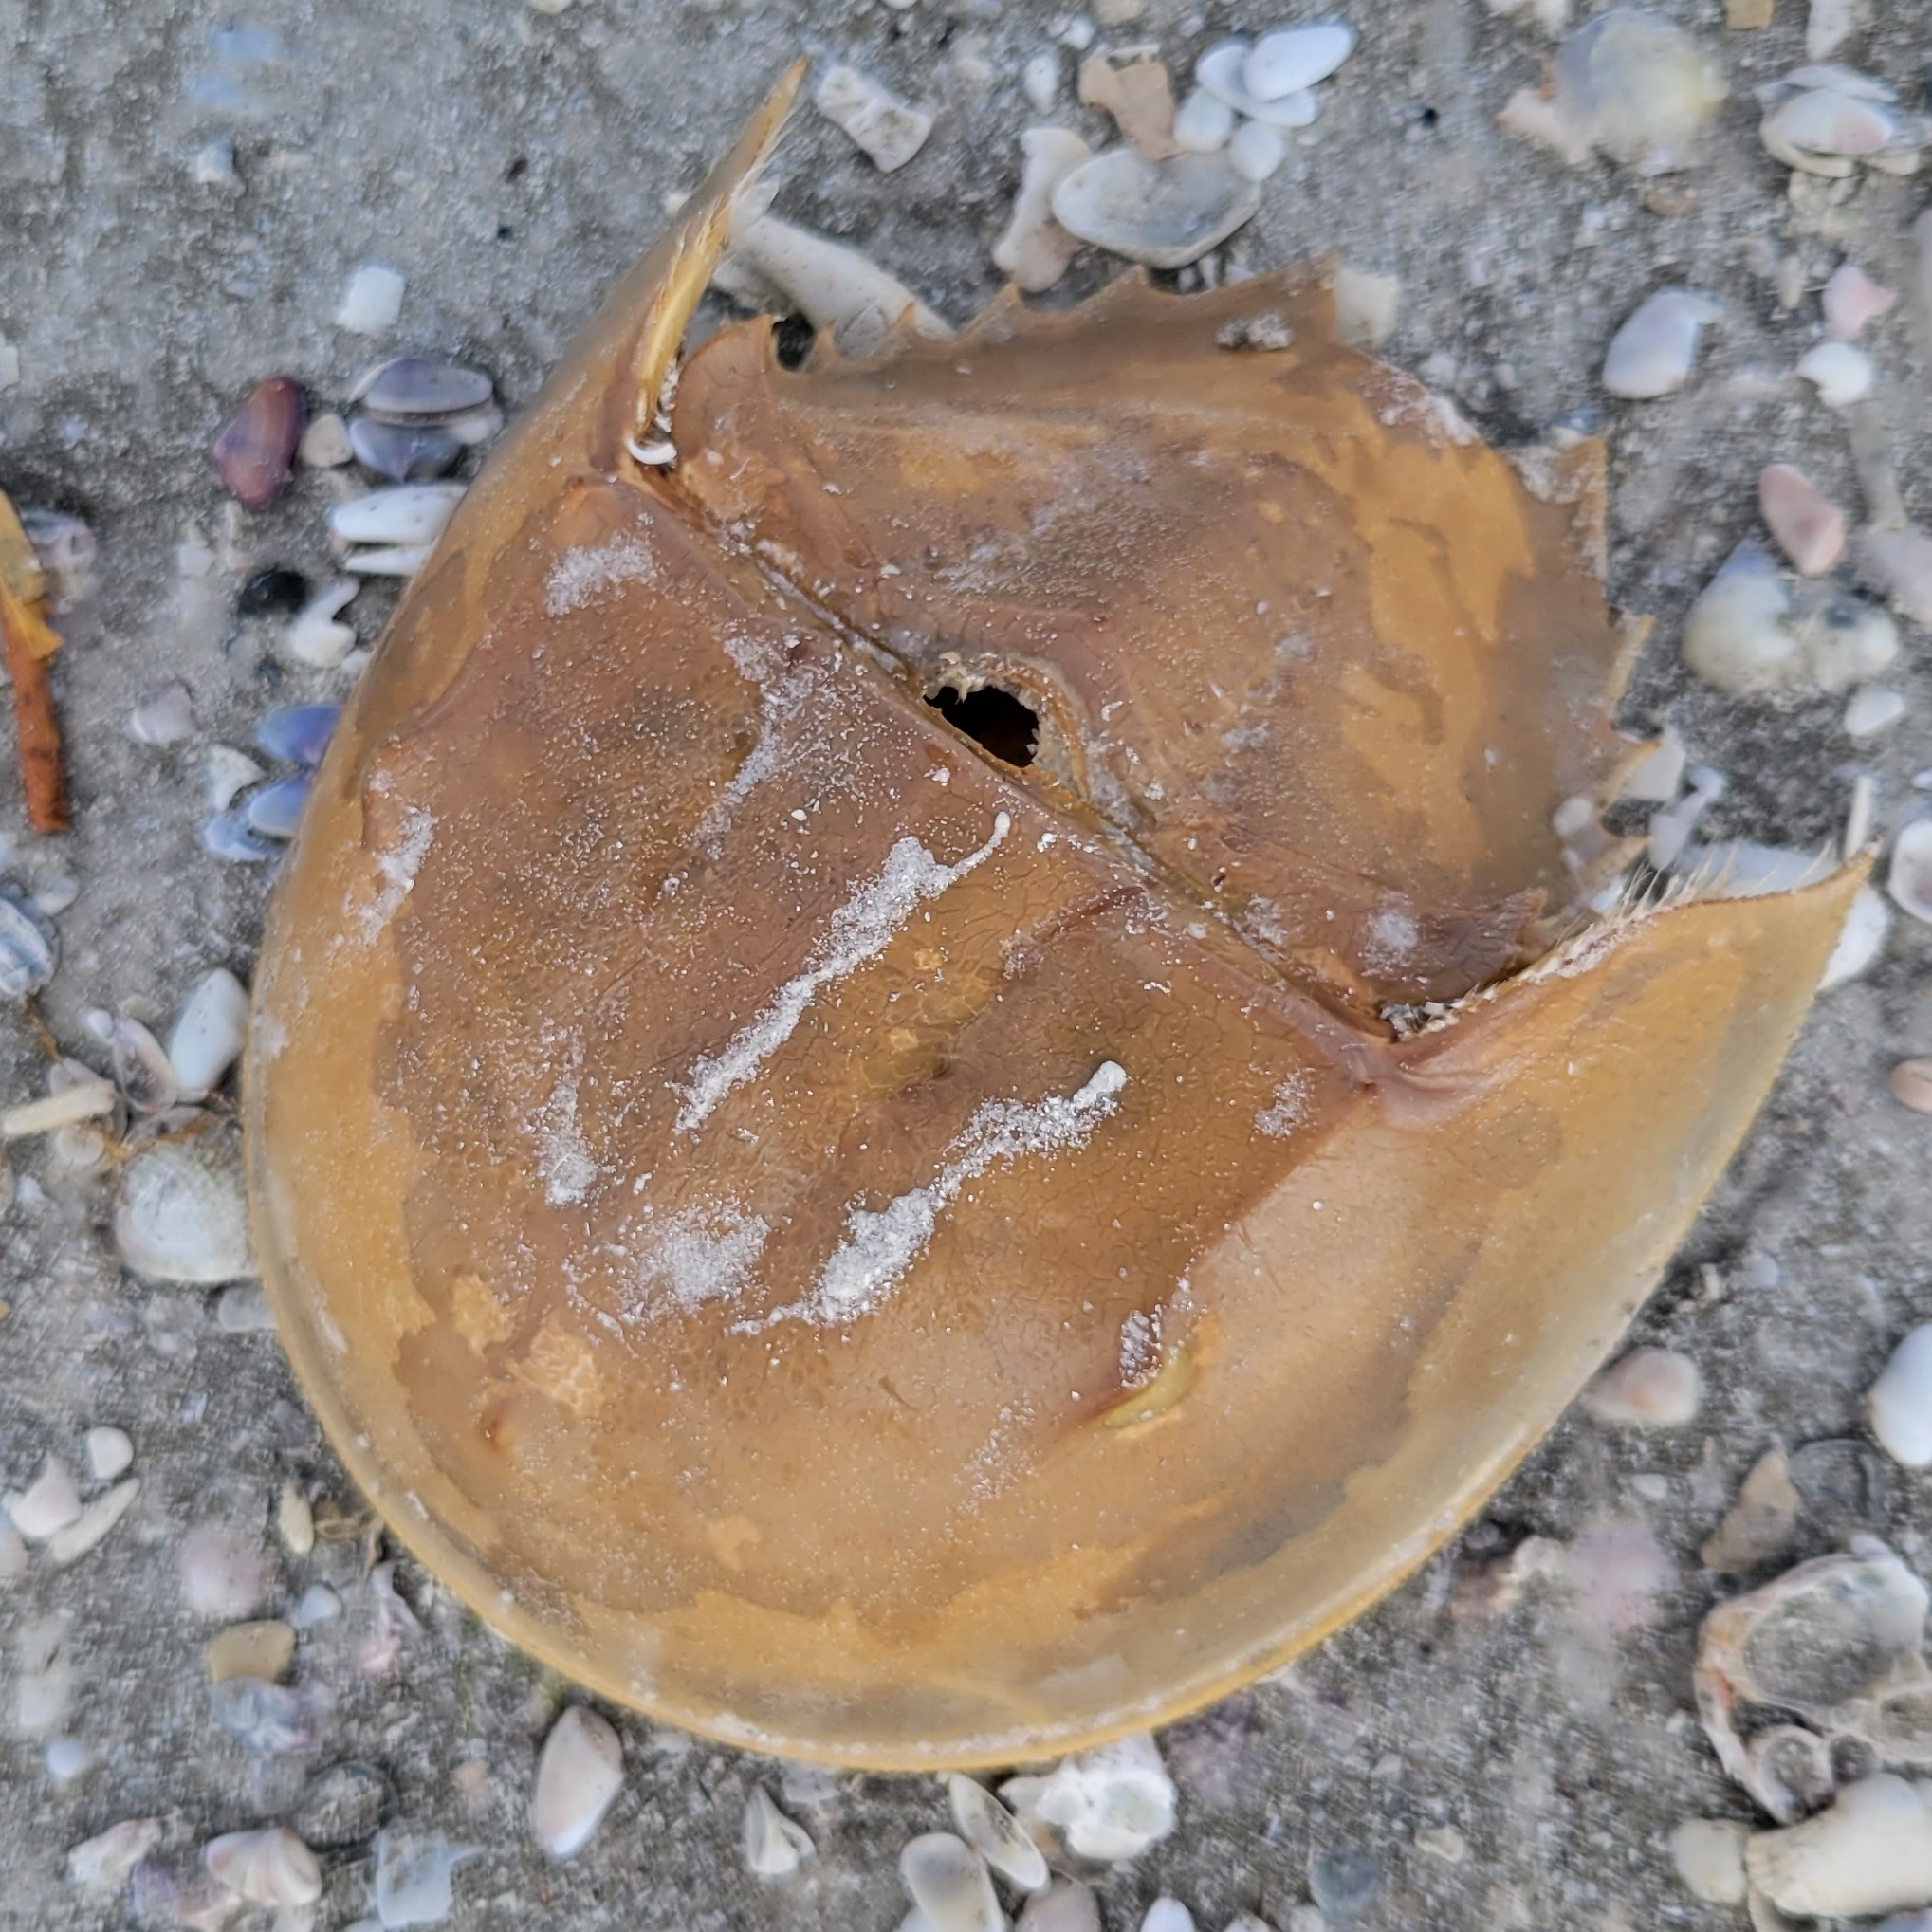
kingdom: Animalia
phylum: Arthropoda
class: Merostomata
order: Xiphosurida
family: Limulidae
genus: Limulus
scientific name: Limulus polyphemus
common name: Horseshoe crab
